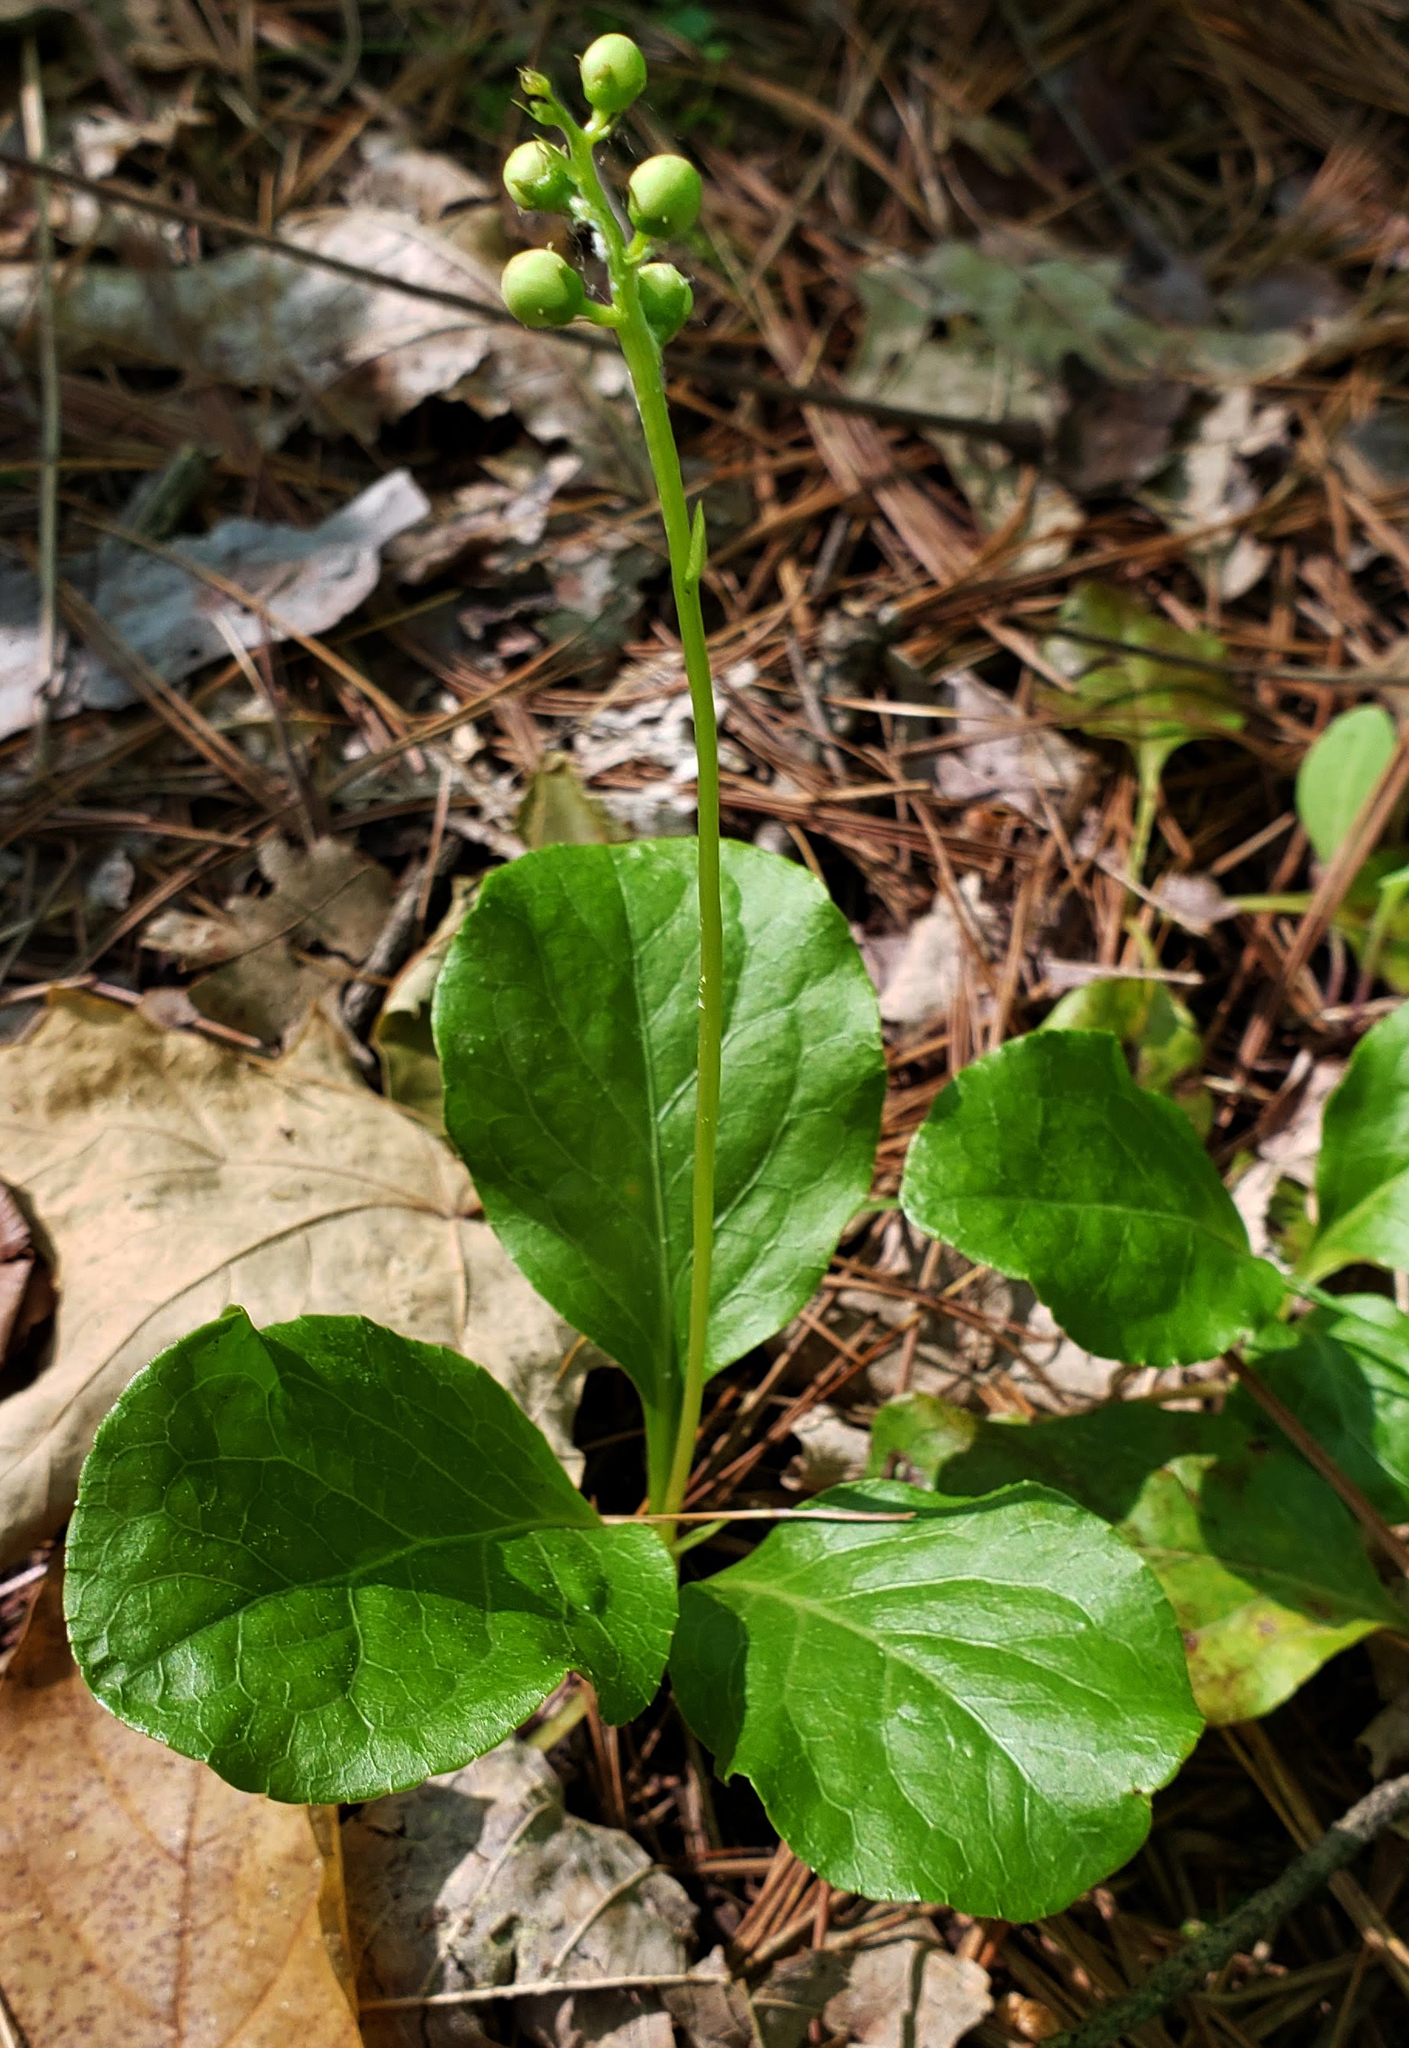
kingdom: Plantae
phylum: Tracheophyta
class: Magnoliopsida
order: Ericales
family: Ericaceae
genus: Pyrola
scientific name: Pyrola elliptica
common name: Shinleaf
